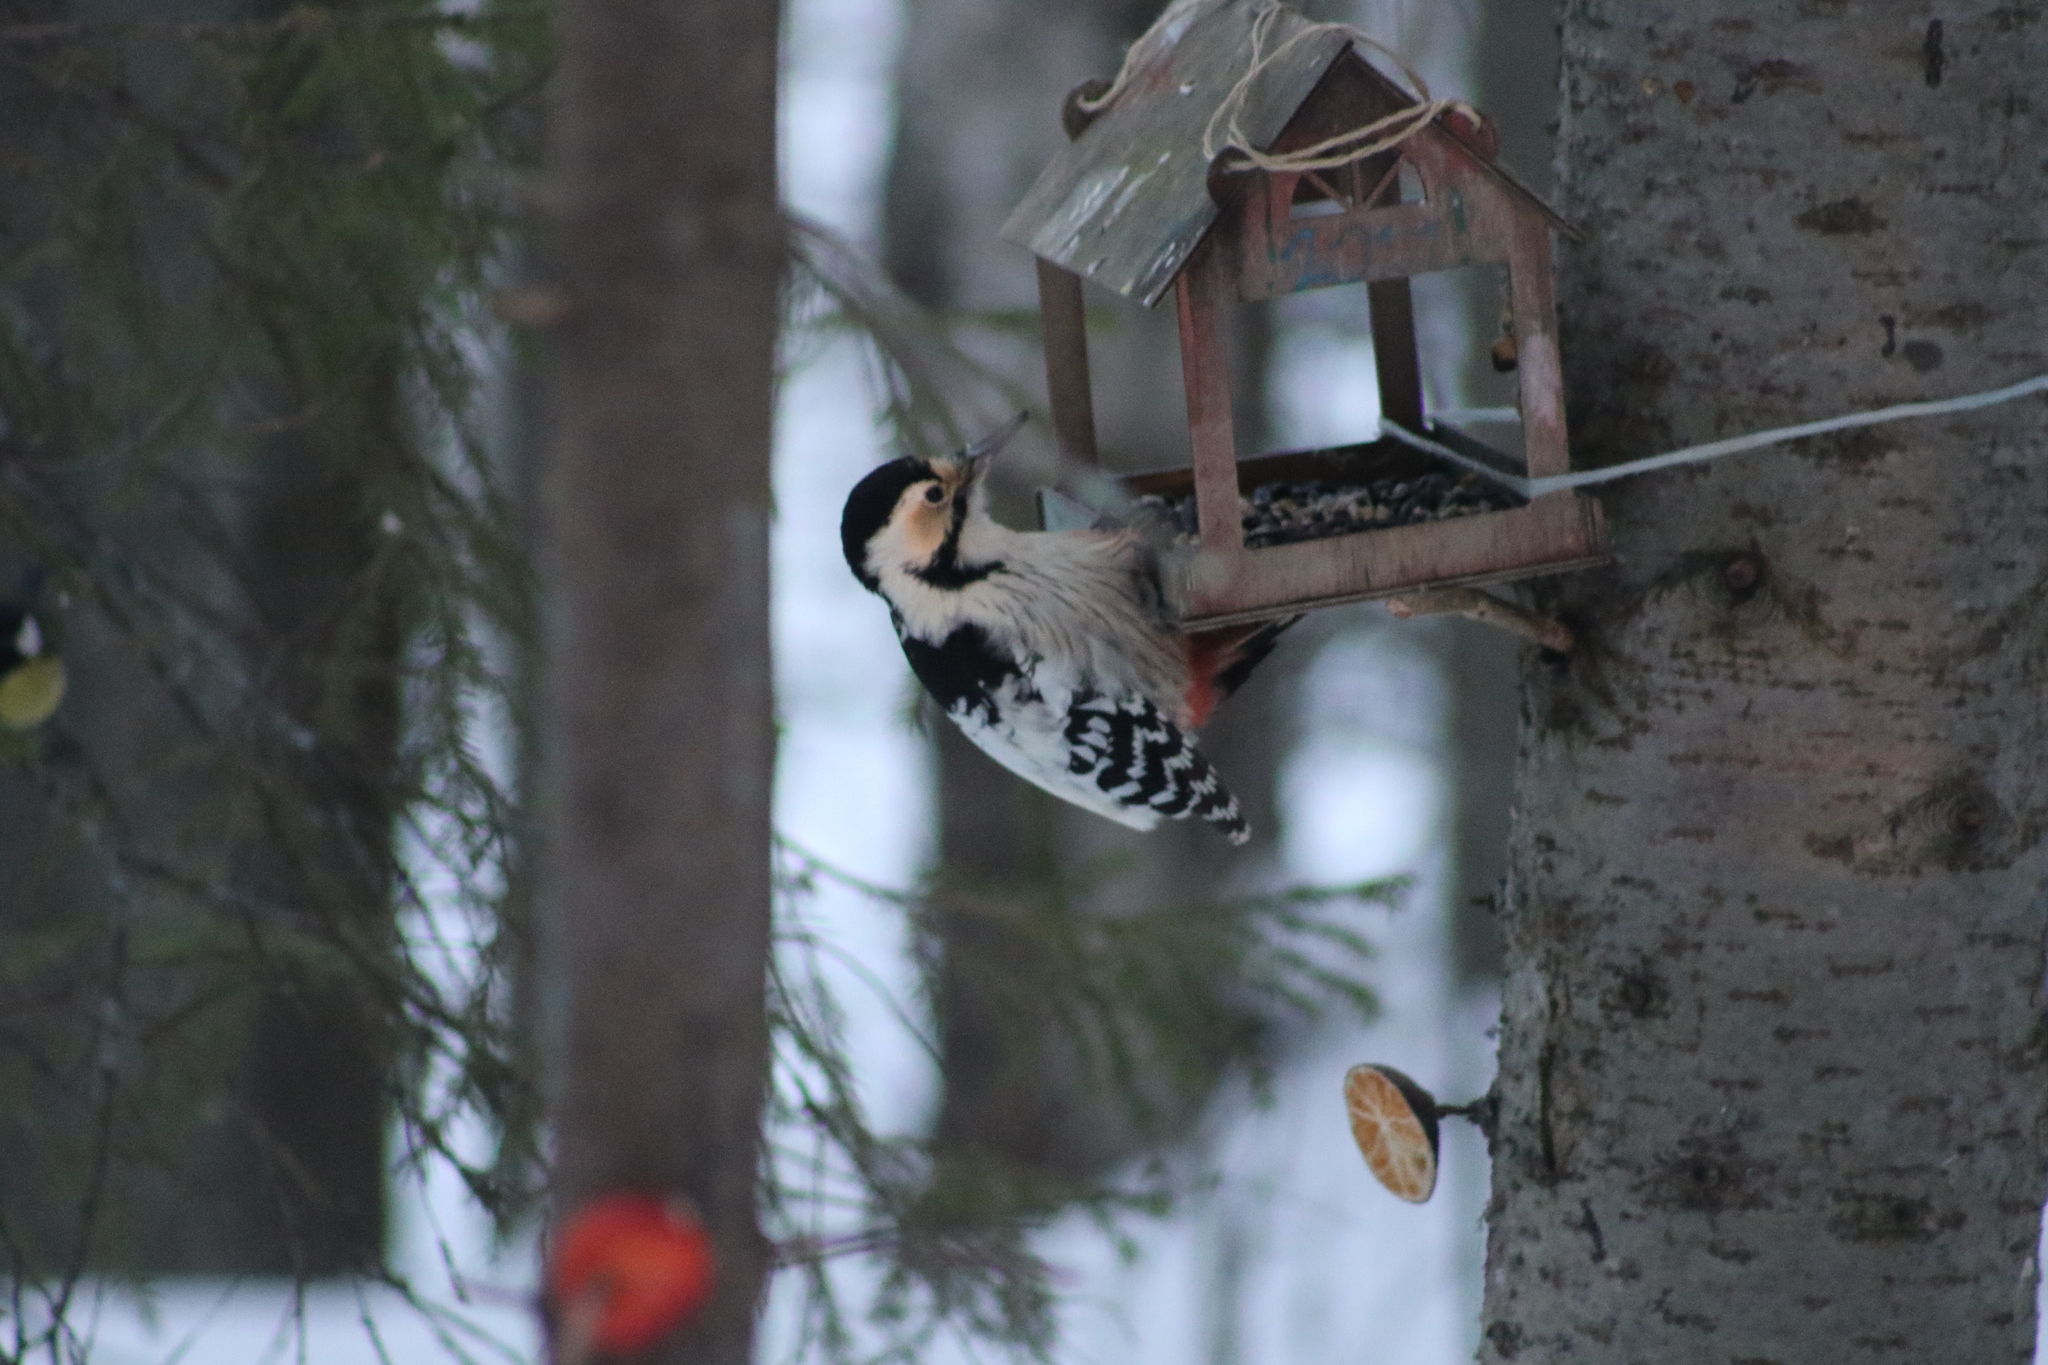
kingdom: Animalia
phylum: Chordata
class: Aves
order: Piciformes
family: Picidae
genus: Dendrocopos
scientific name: Dendrocopos leucotos
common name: White-backed woodpecker
